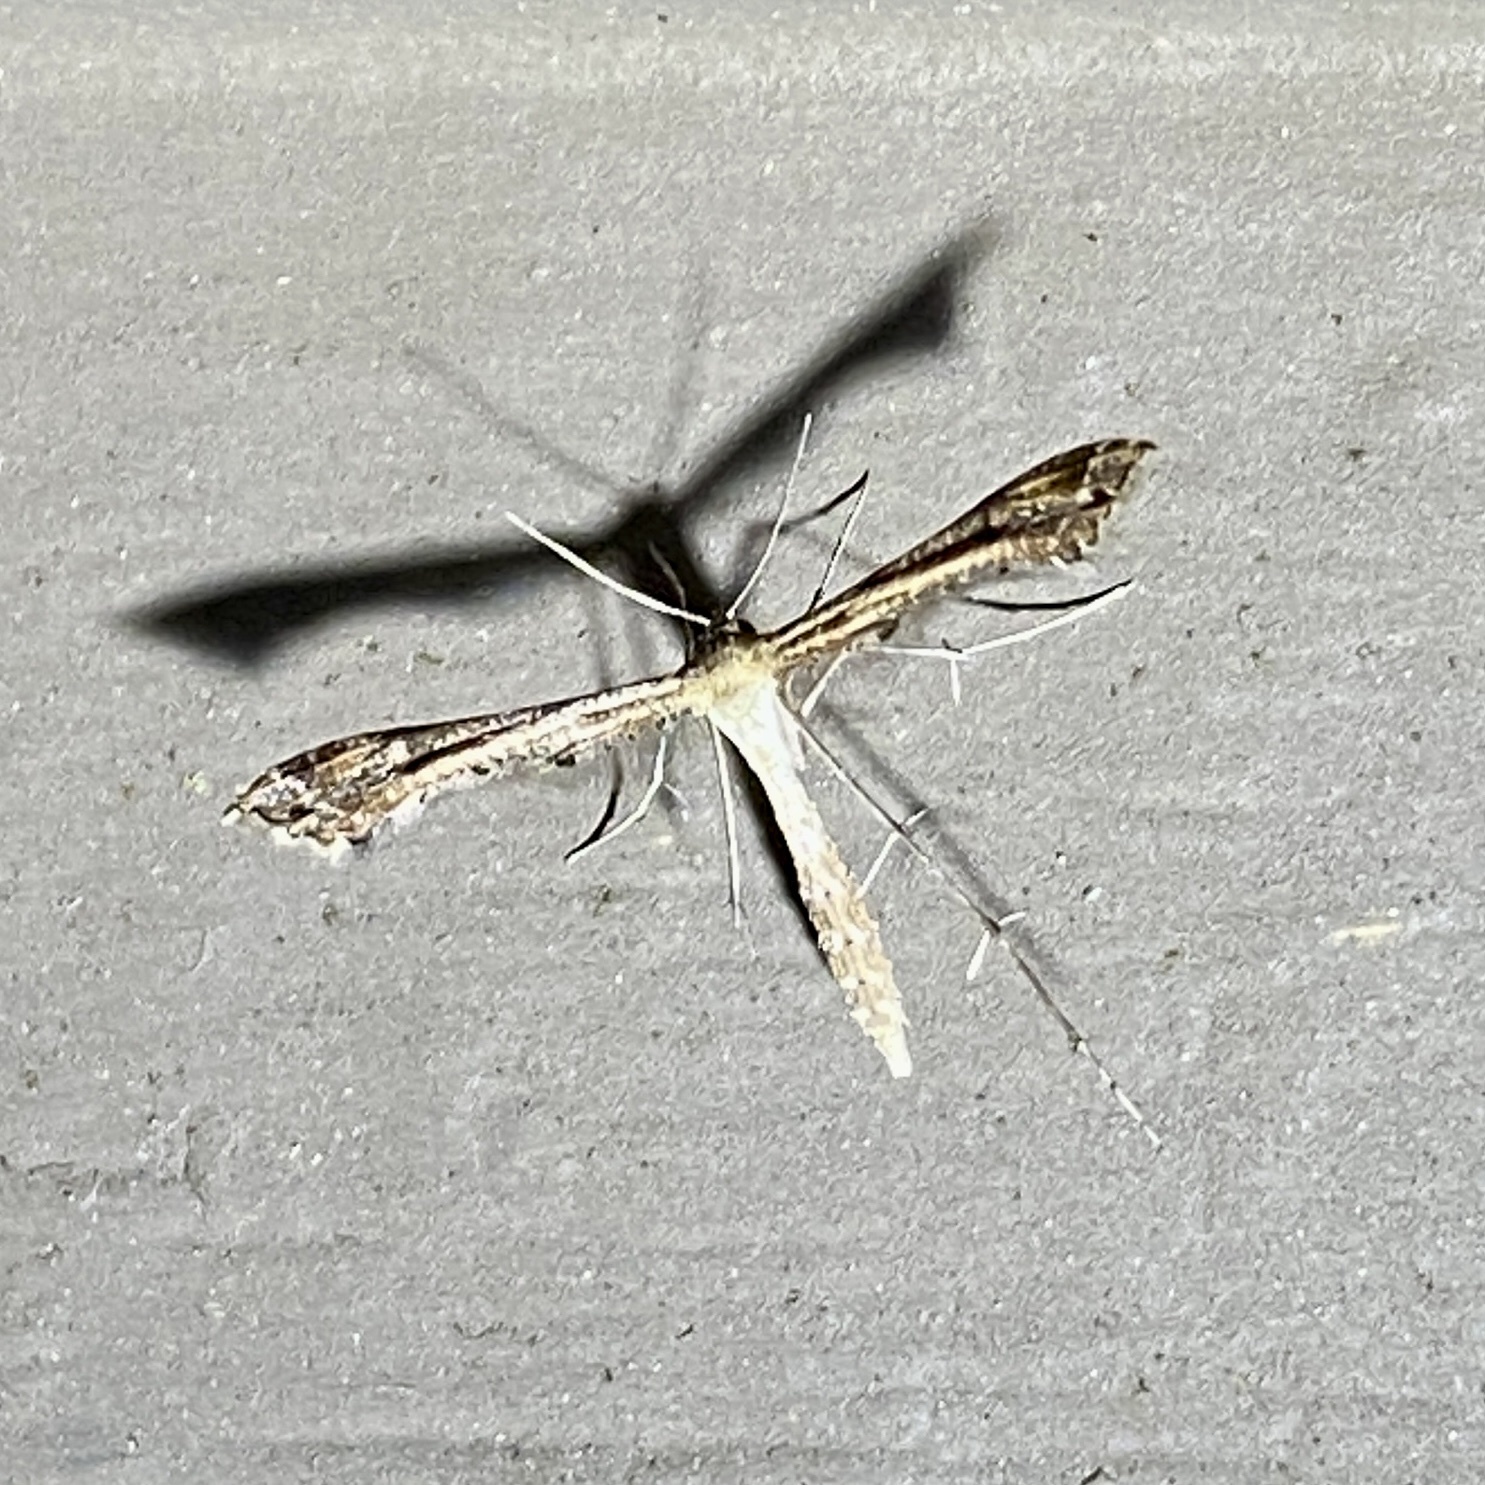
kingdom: Animalia
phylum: Arthropoda
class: Insecta
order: Lepidoptera
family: Pterophoridae
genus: Stenoptilodes
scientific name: Stenoptilodes
